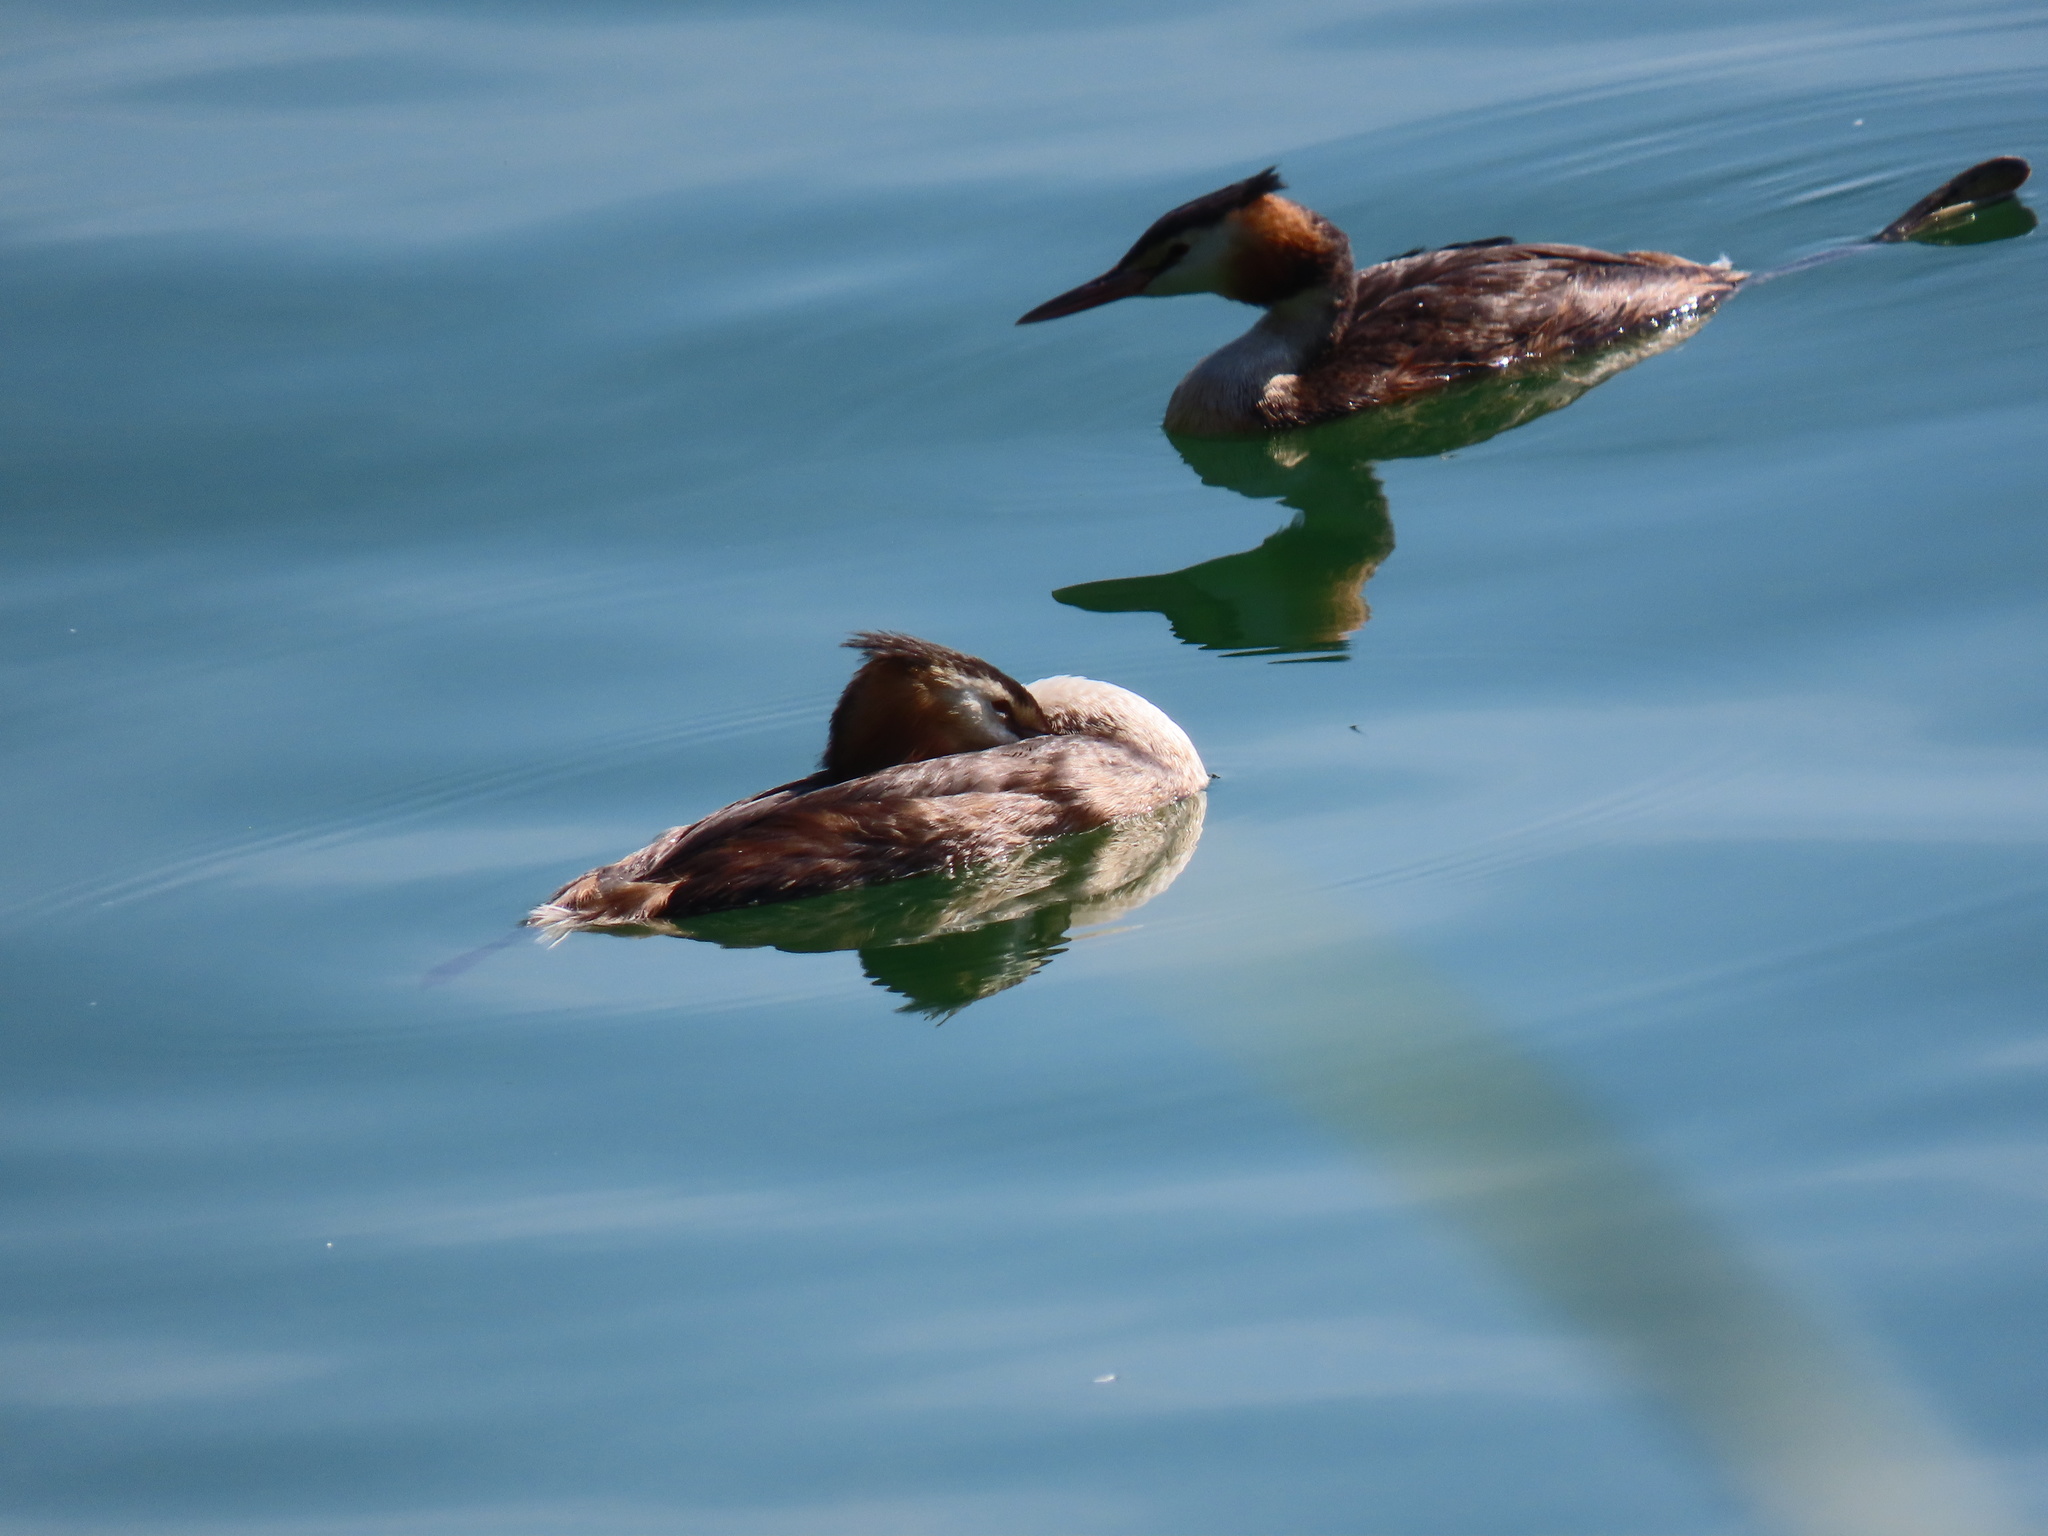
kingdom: Animalia
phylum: Chordata
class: Aves
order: Podicipediformes
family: Podicipedidae
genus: Podiceps
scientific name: Podiceps cristatus
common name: Great crested grebe
